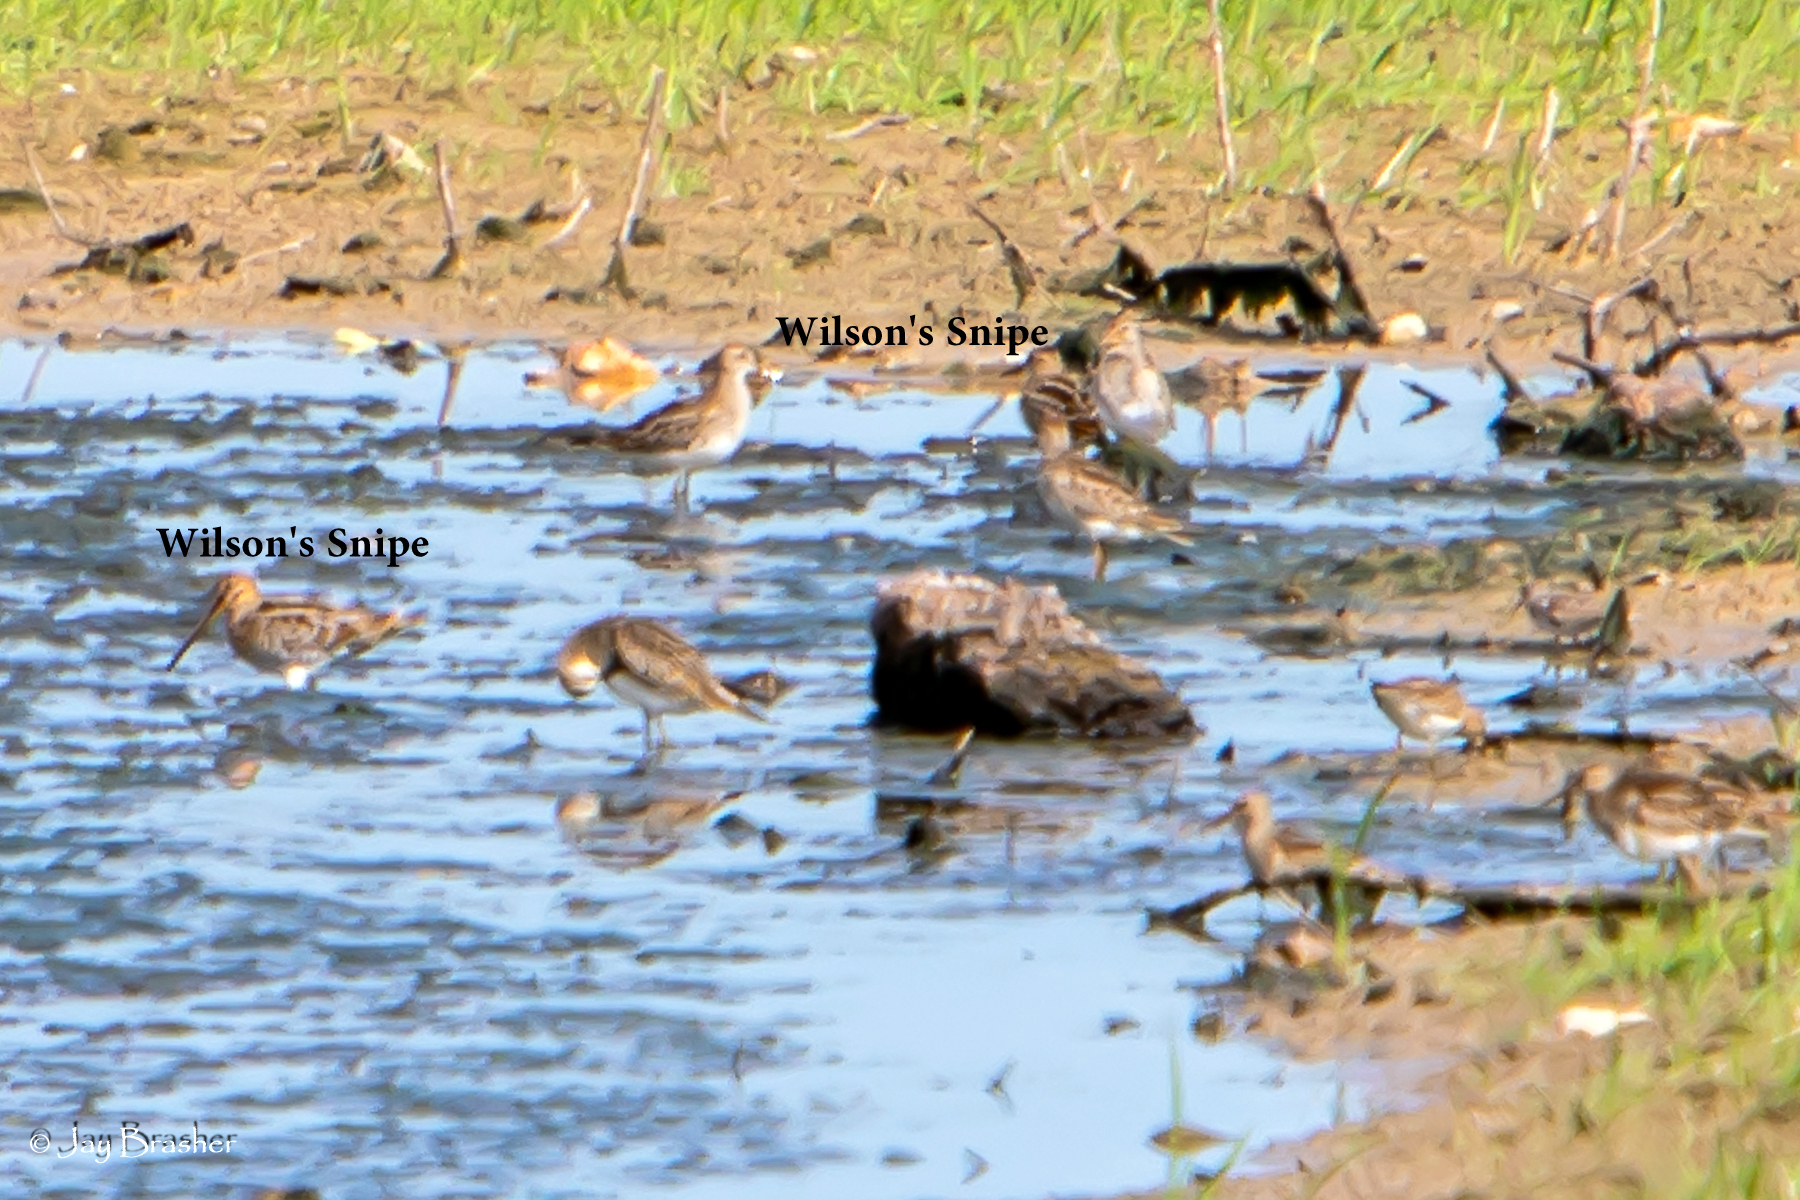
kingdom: Animalia
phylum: Chordata
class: Aves
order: Charadriiformes
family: Scolopacidae
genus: Gallinago
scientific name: Gallinago delicata
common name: Wilson's snipe
